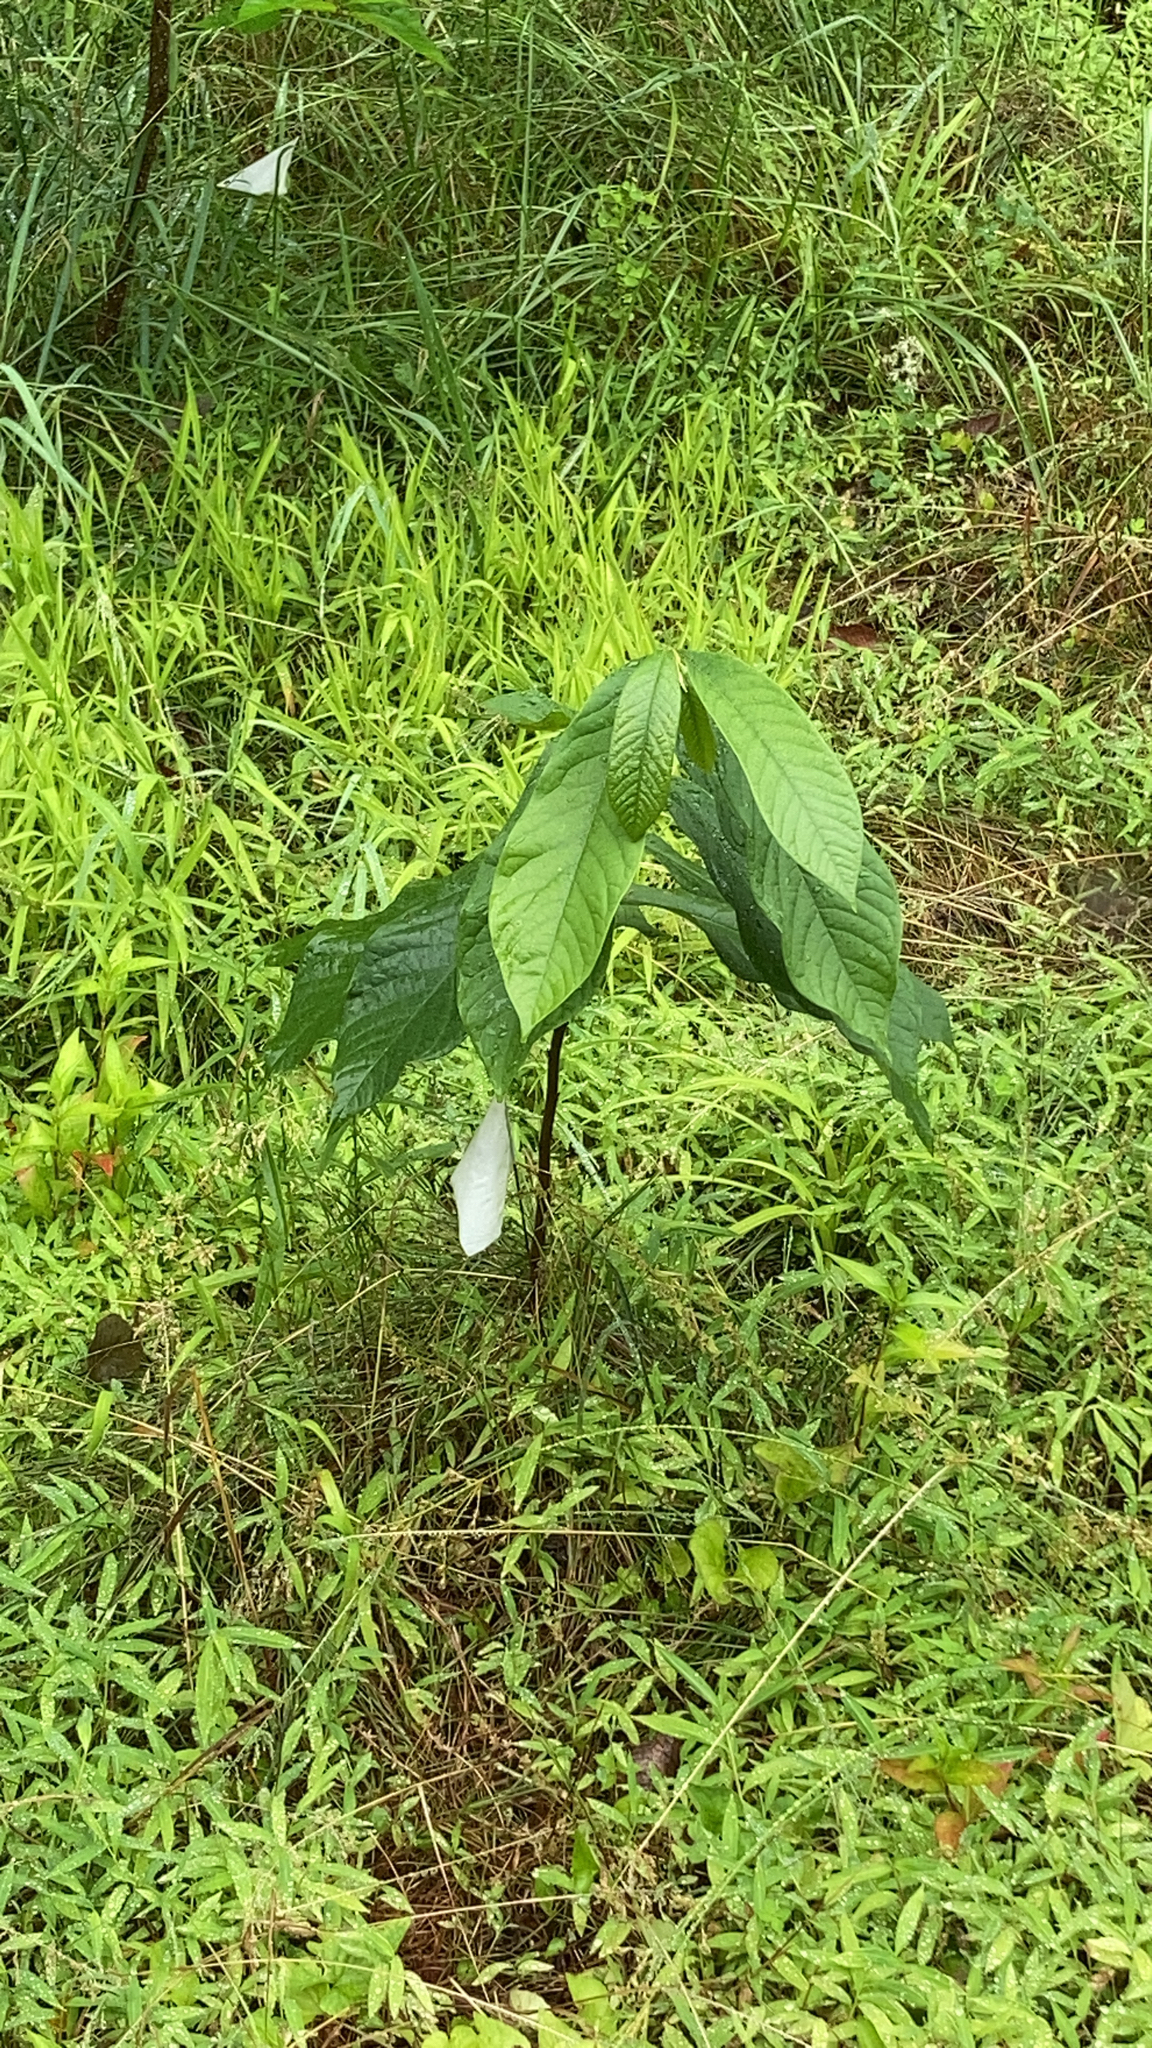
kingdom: Plantae
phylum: Tracheophyta
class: Magnoliopsida
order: Magnoliales
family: Annonaceae
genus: Asimina
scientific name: Asimina triloba
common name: Dog-banana
